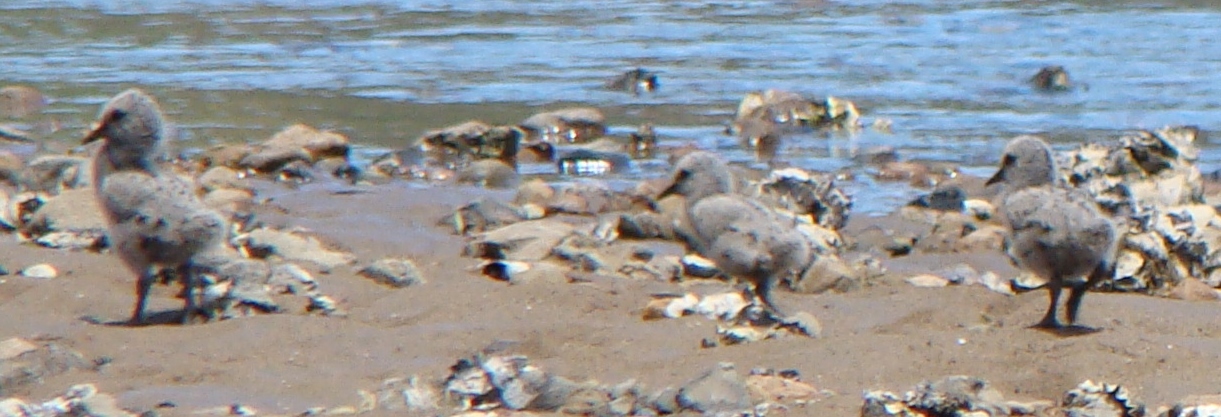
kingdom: Animalia
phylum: Chordata
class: Aves
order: Charadriiformes
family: Haematopodidae
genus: Haematopus
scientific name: Haematopus unicolor
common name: Variable oystercatcher
